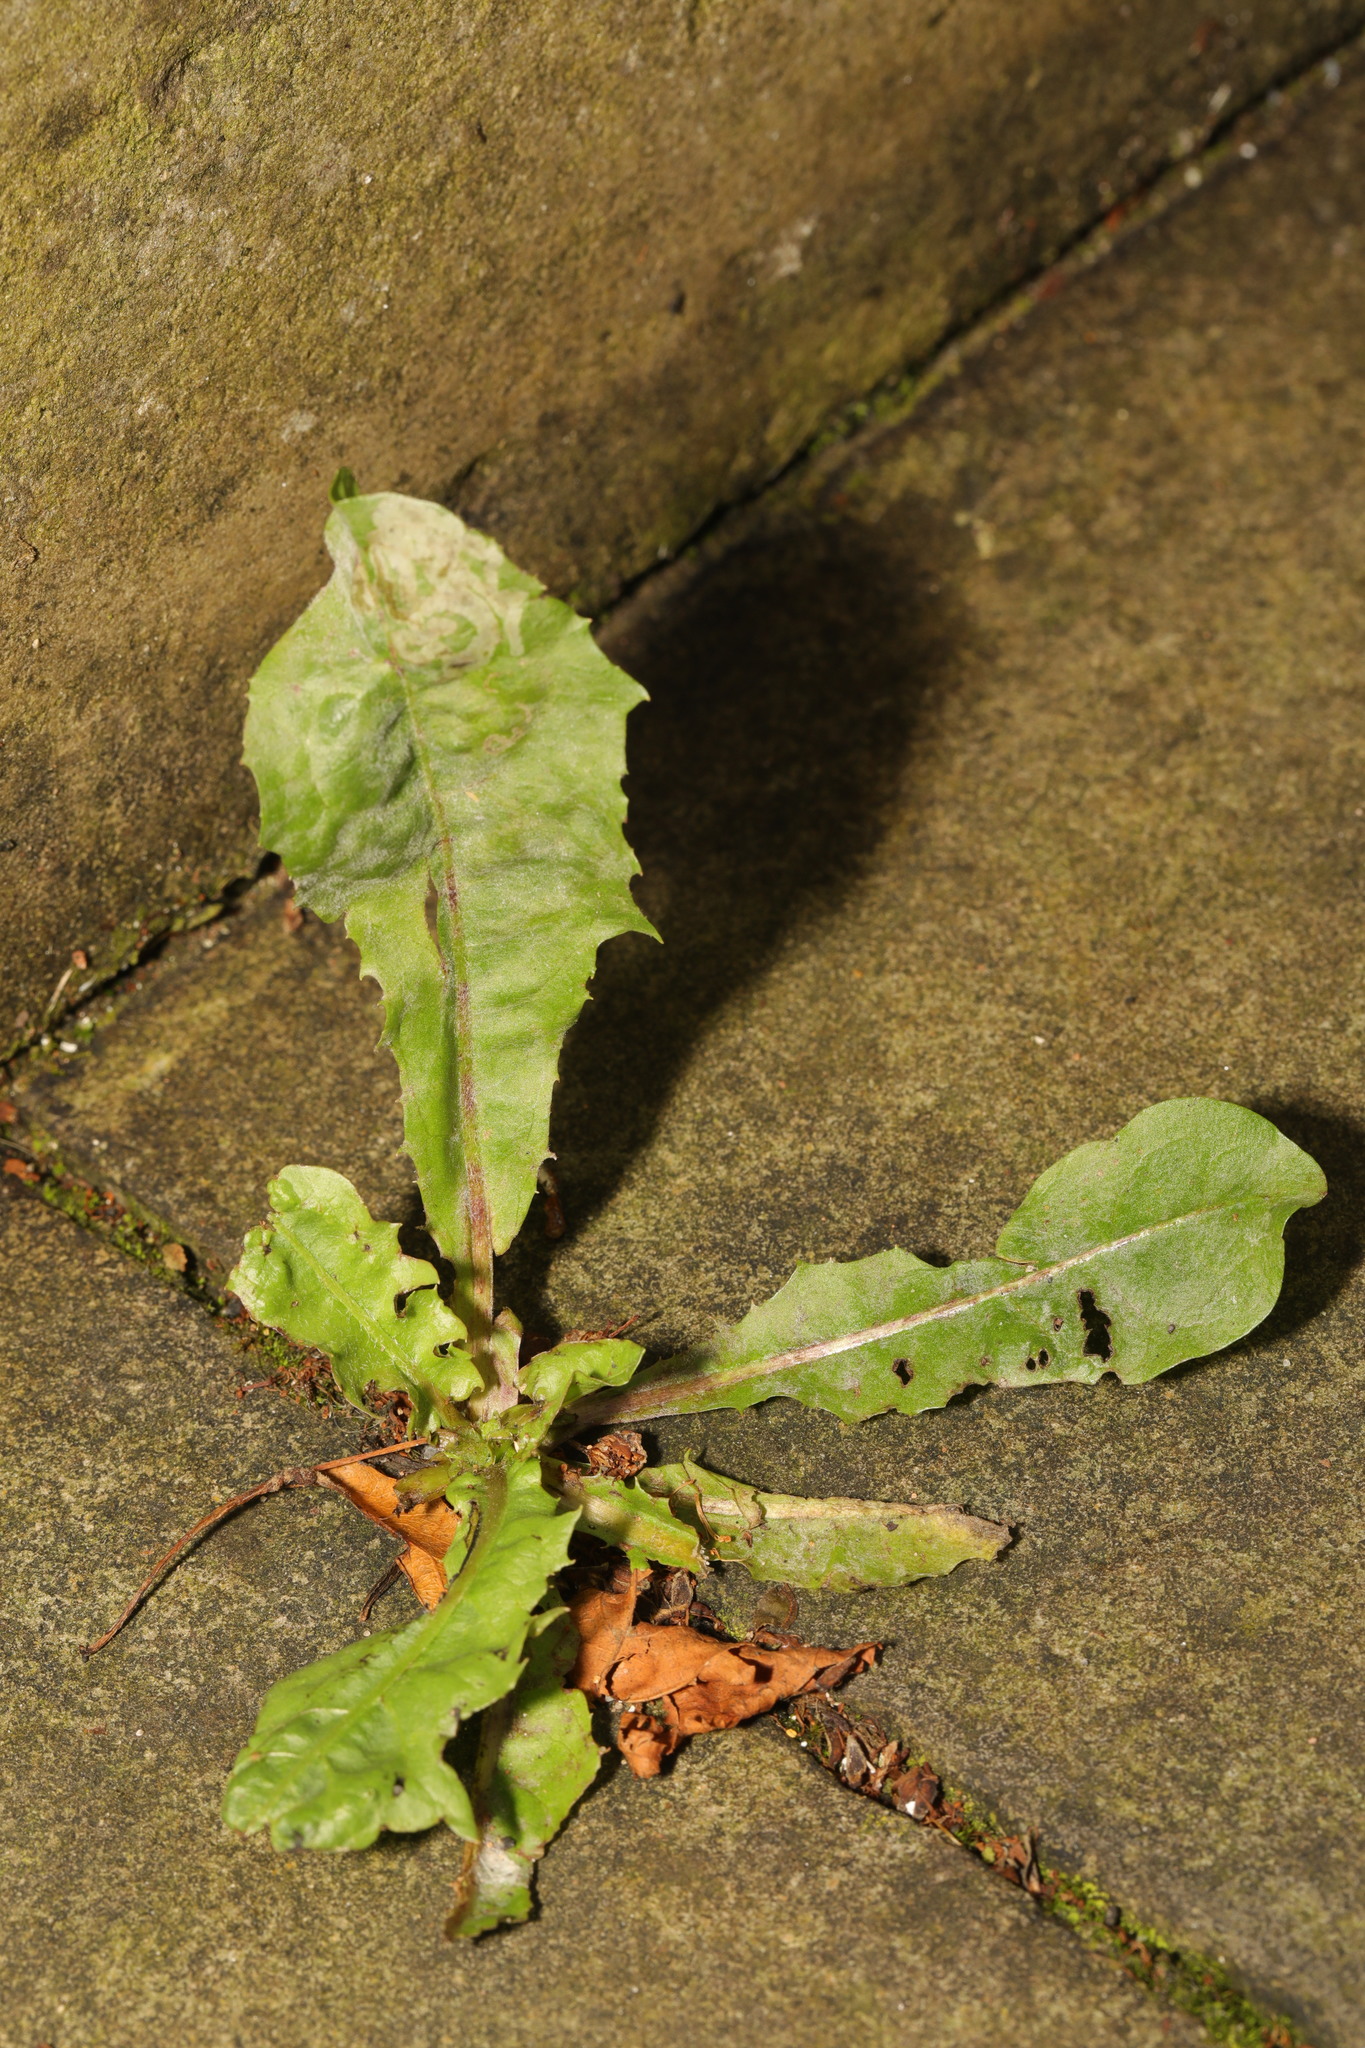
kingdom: Fungi
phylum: Ascomycota
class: Leotiomycetes
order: Helotiales
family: Erysiphaceae
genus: Podosphaera
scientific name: Podosphaera erigerontis-canadensis
